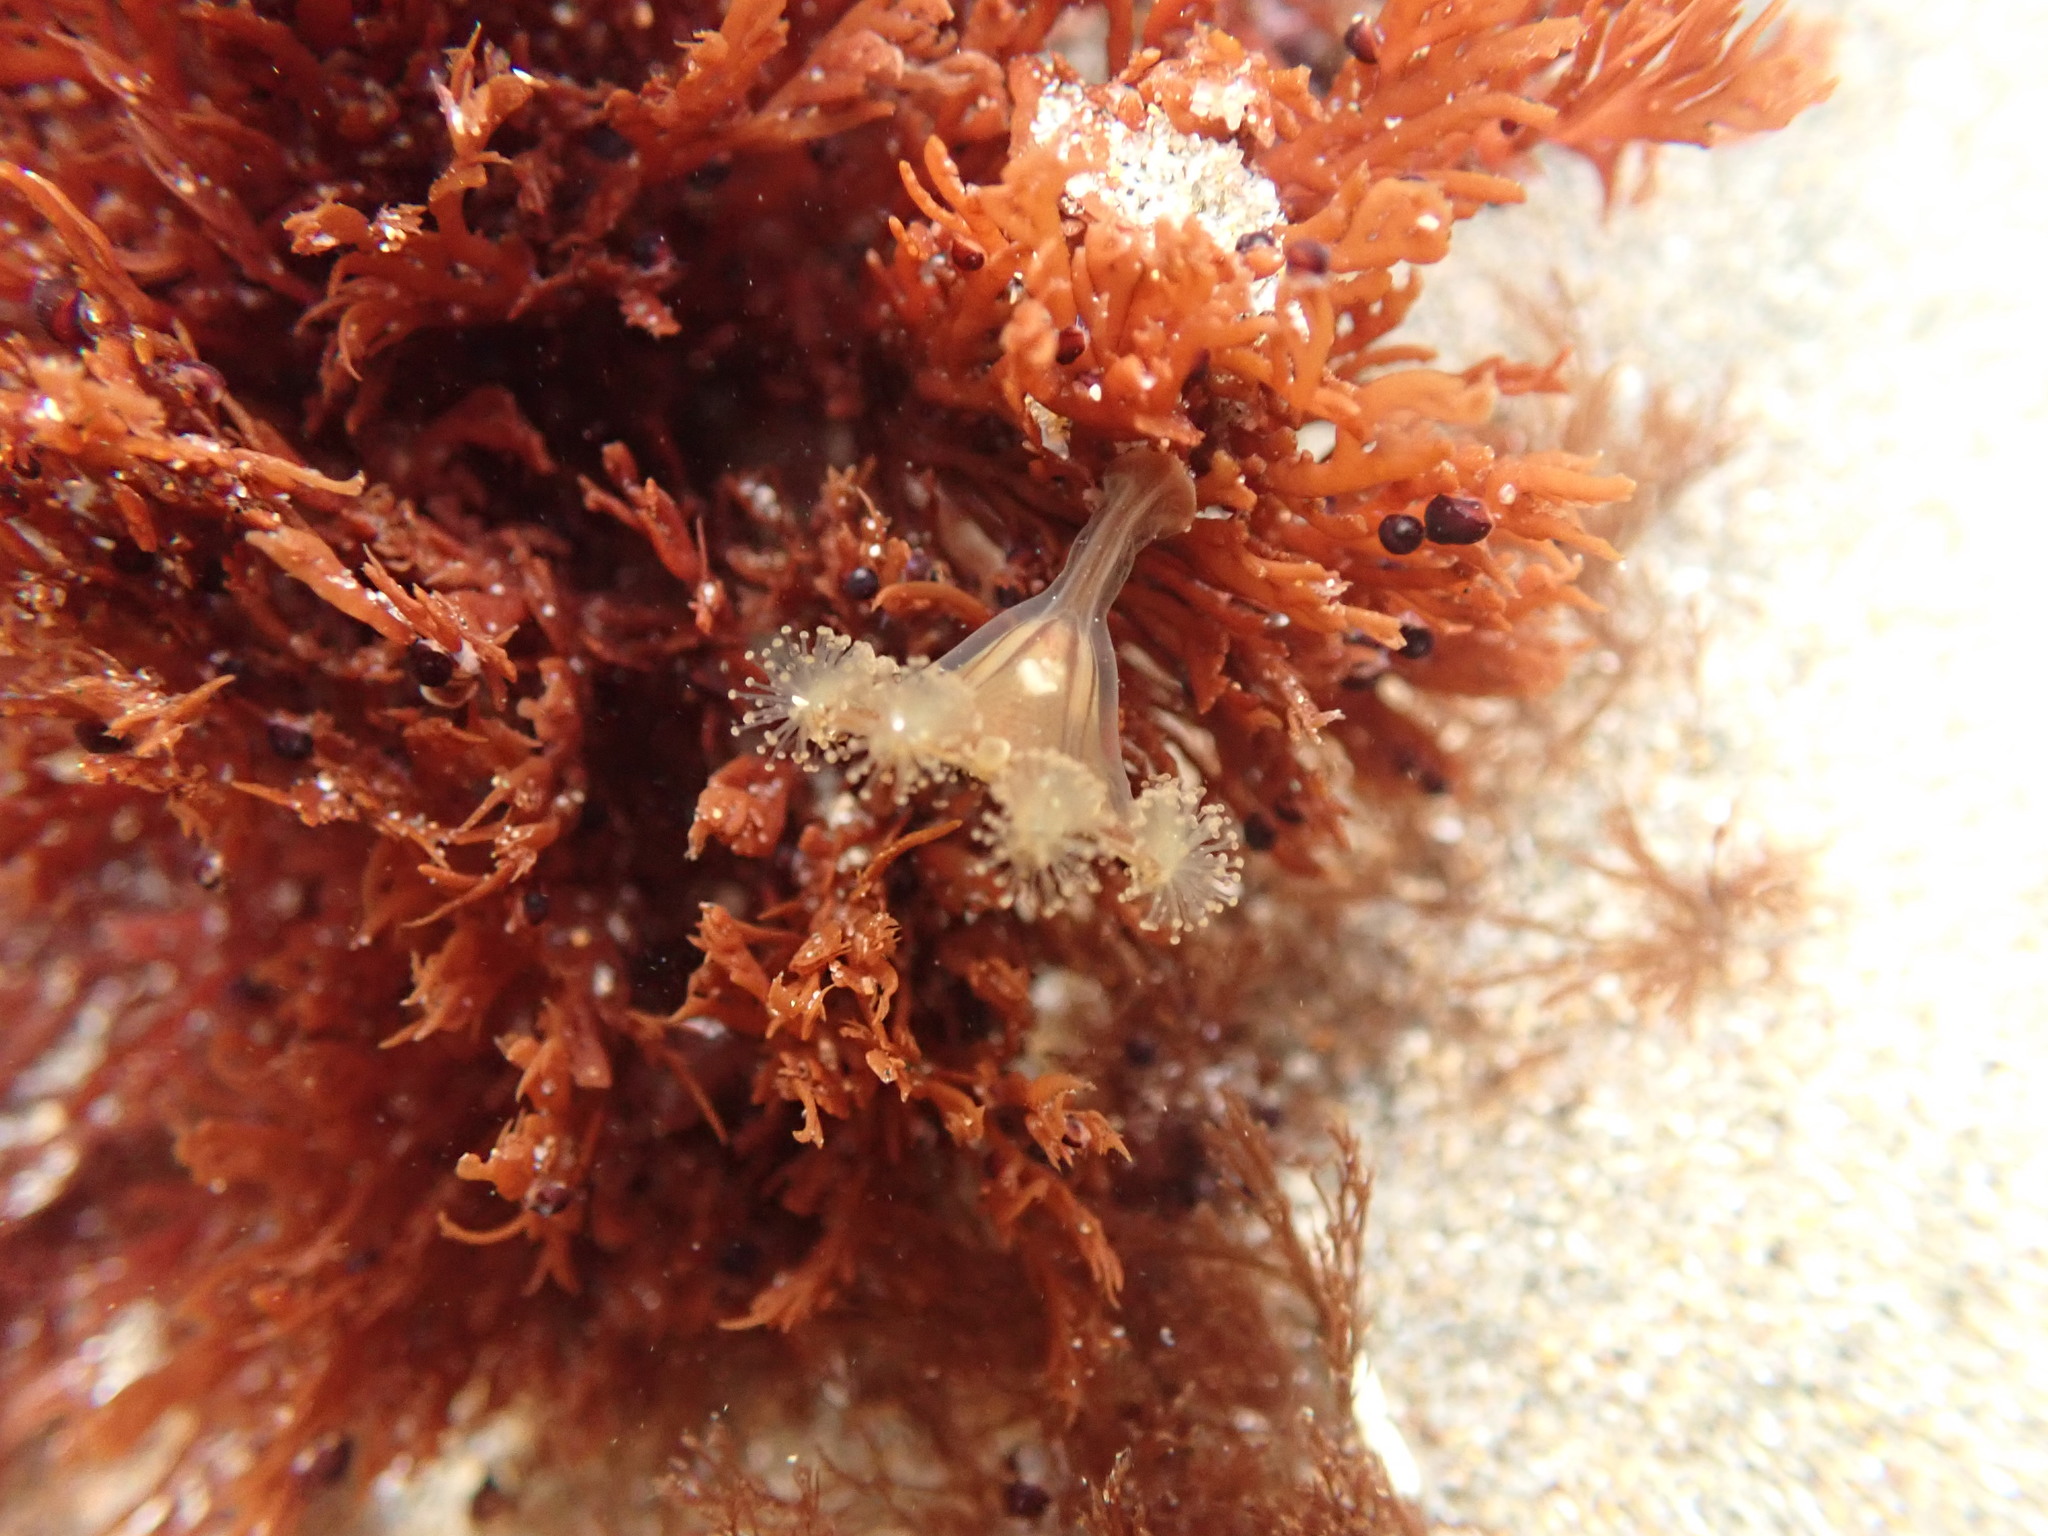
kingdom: Animalia
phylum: Cnidaria
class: Staurozoa
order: Stauromedusae
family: Haliclystidae
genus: Haliclystus
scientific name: Haliclystus sanjuanensis
